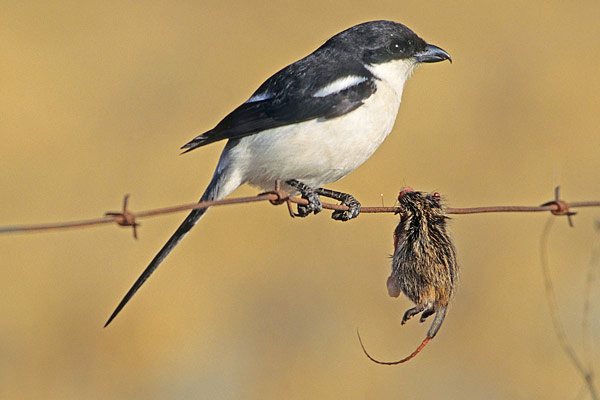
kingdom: Animalia
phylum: Chordata
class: Mammalia
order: Rodentia
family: Muridae
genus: Rhabdomys
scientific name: Rhabdomys pumilio
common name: Xeric four-striped grass rat
